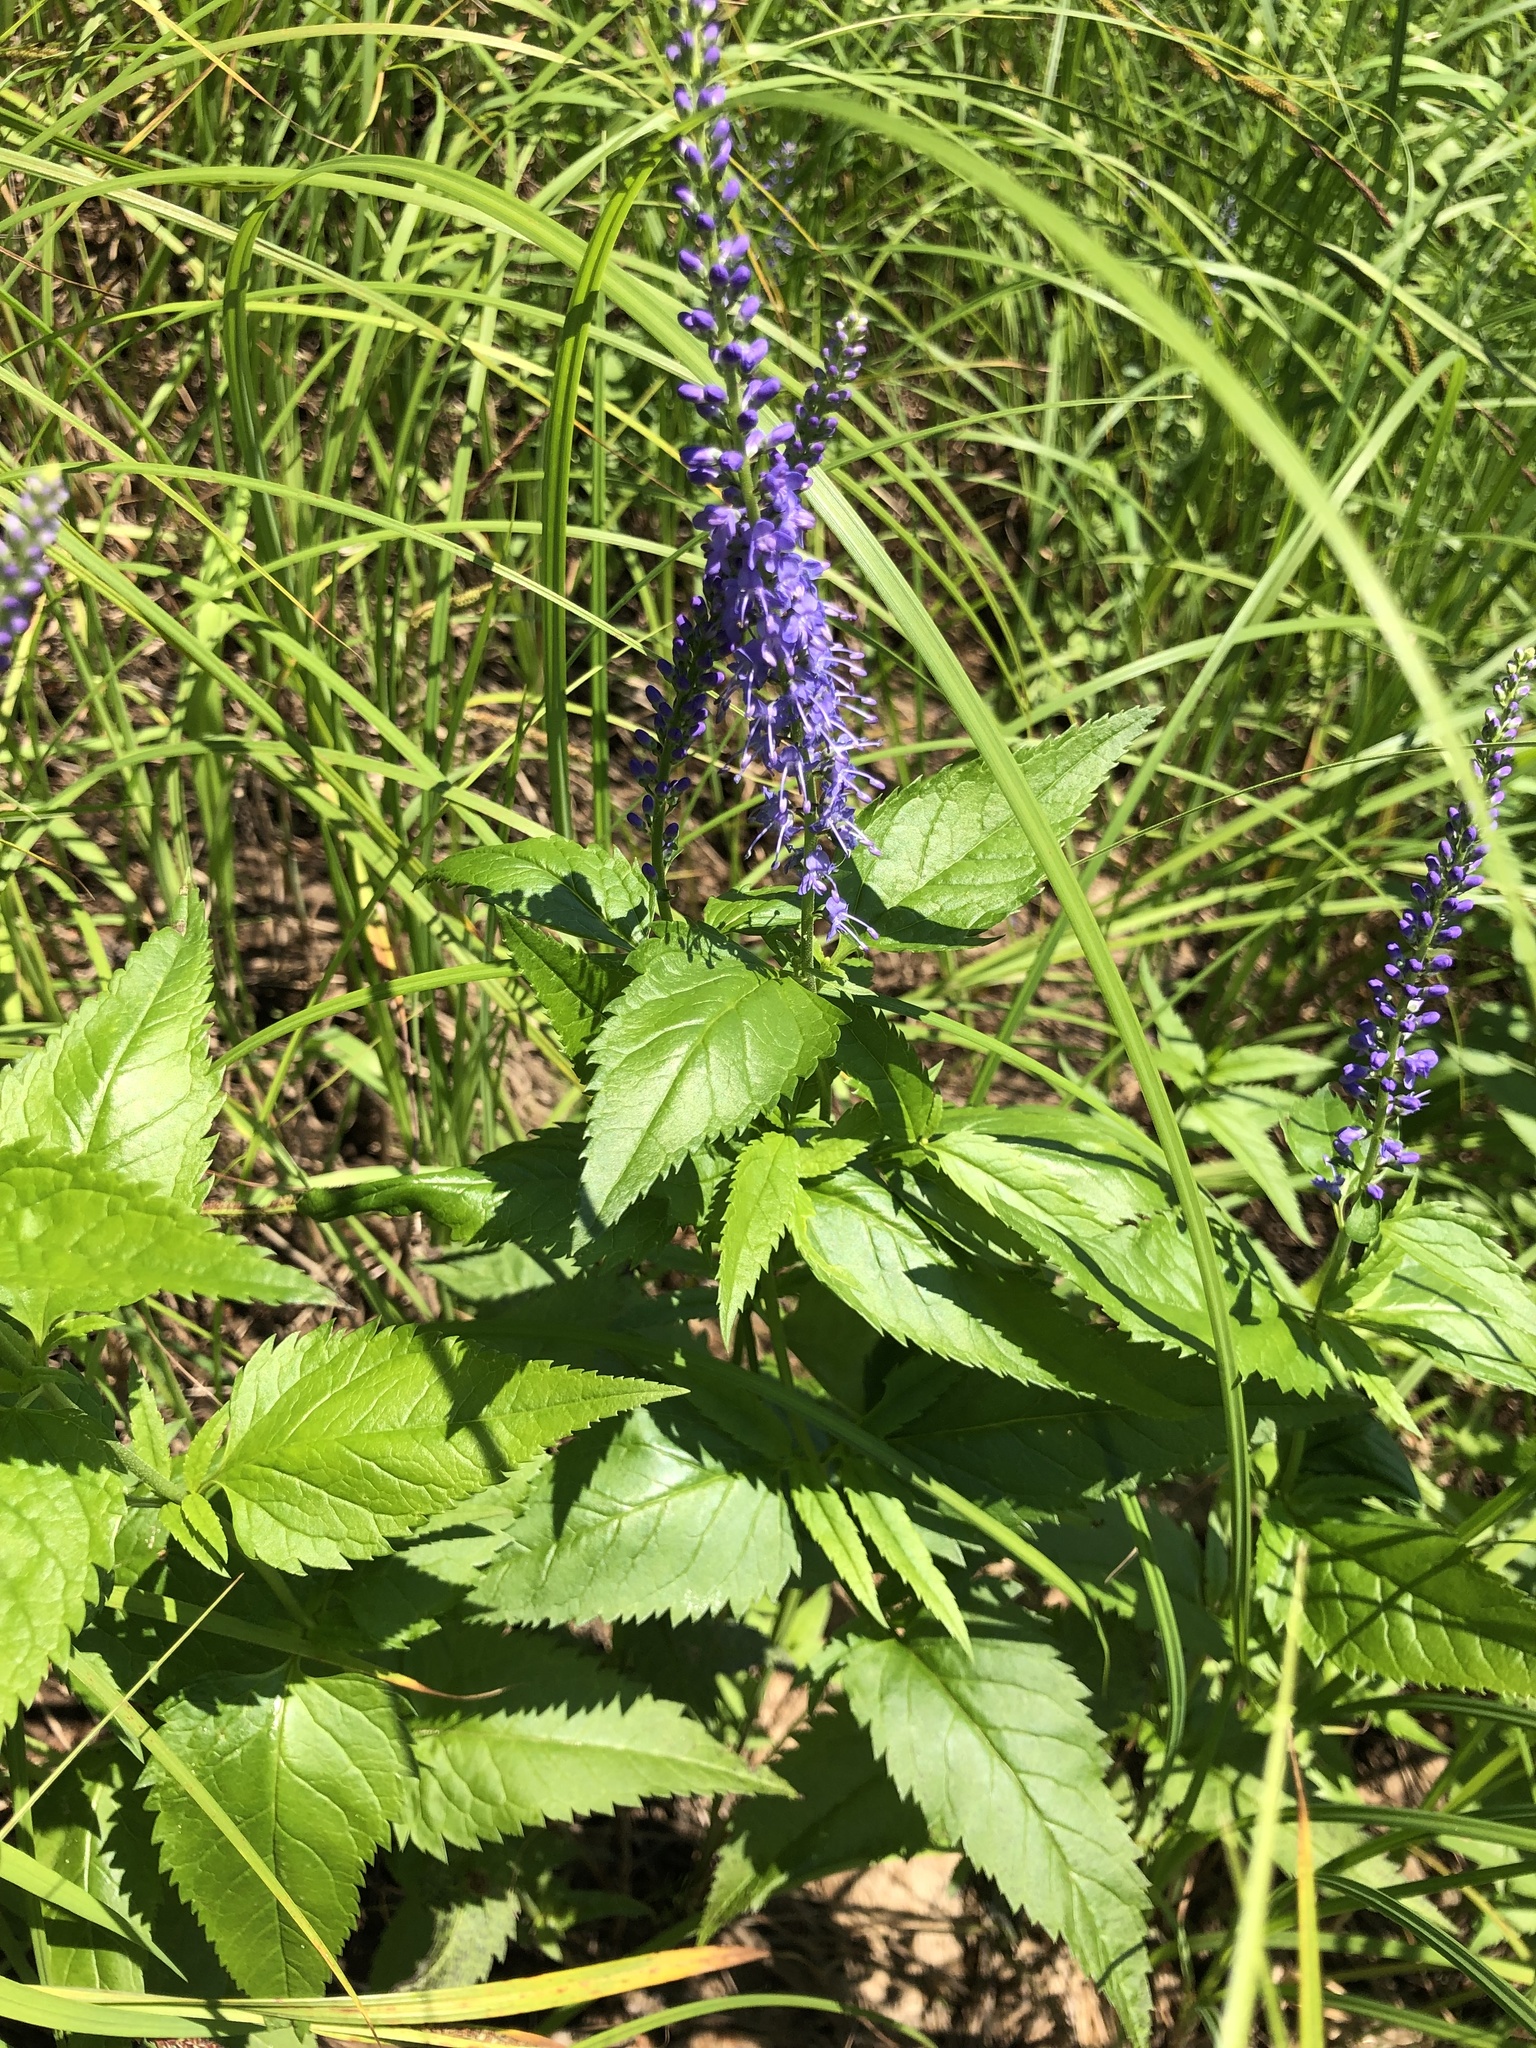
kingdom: Plantae
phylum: Tracheophyta
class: Magnoliopsida
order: Lamiales
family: Plantaginaceae
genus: Veronica
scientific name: Veronica longifolia
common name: Garden speedwell
